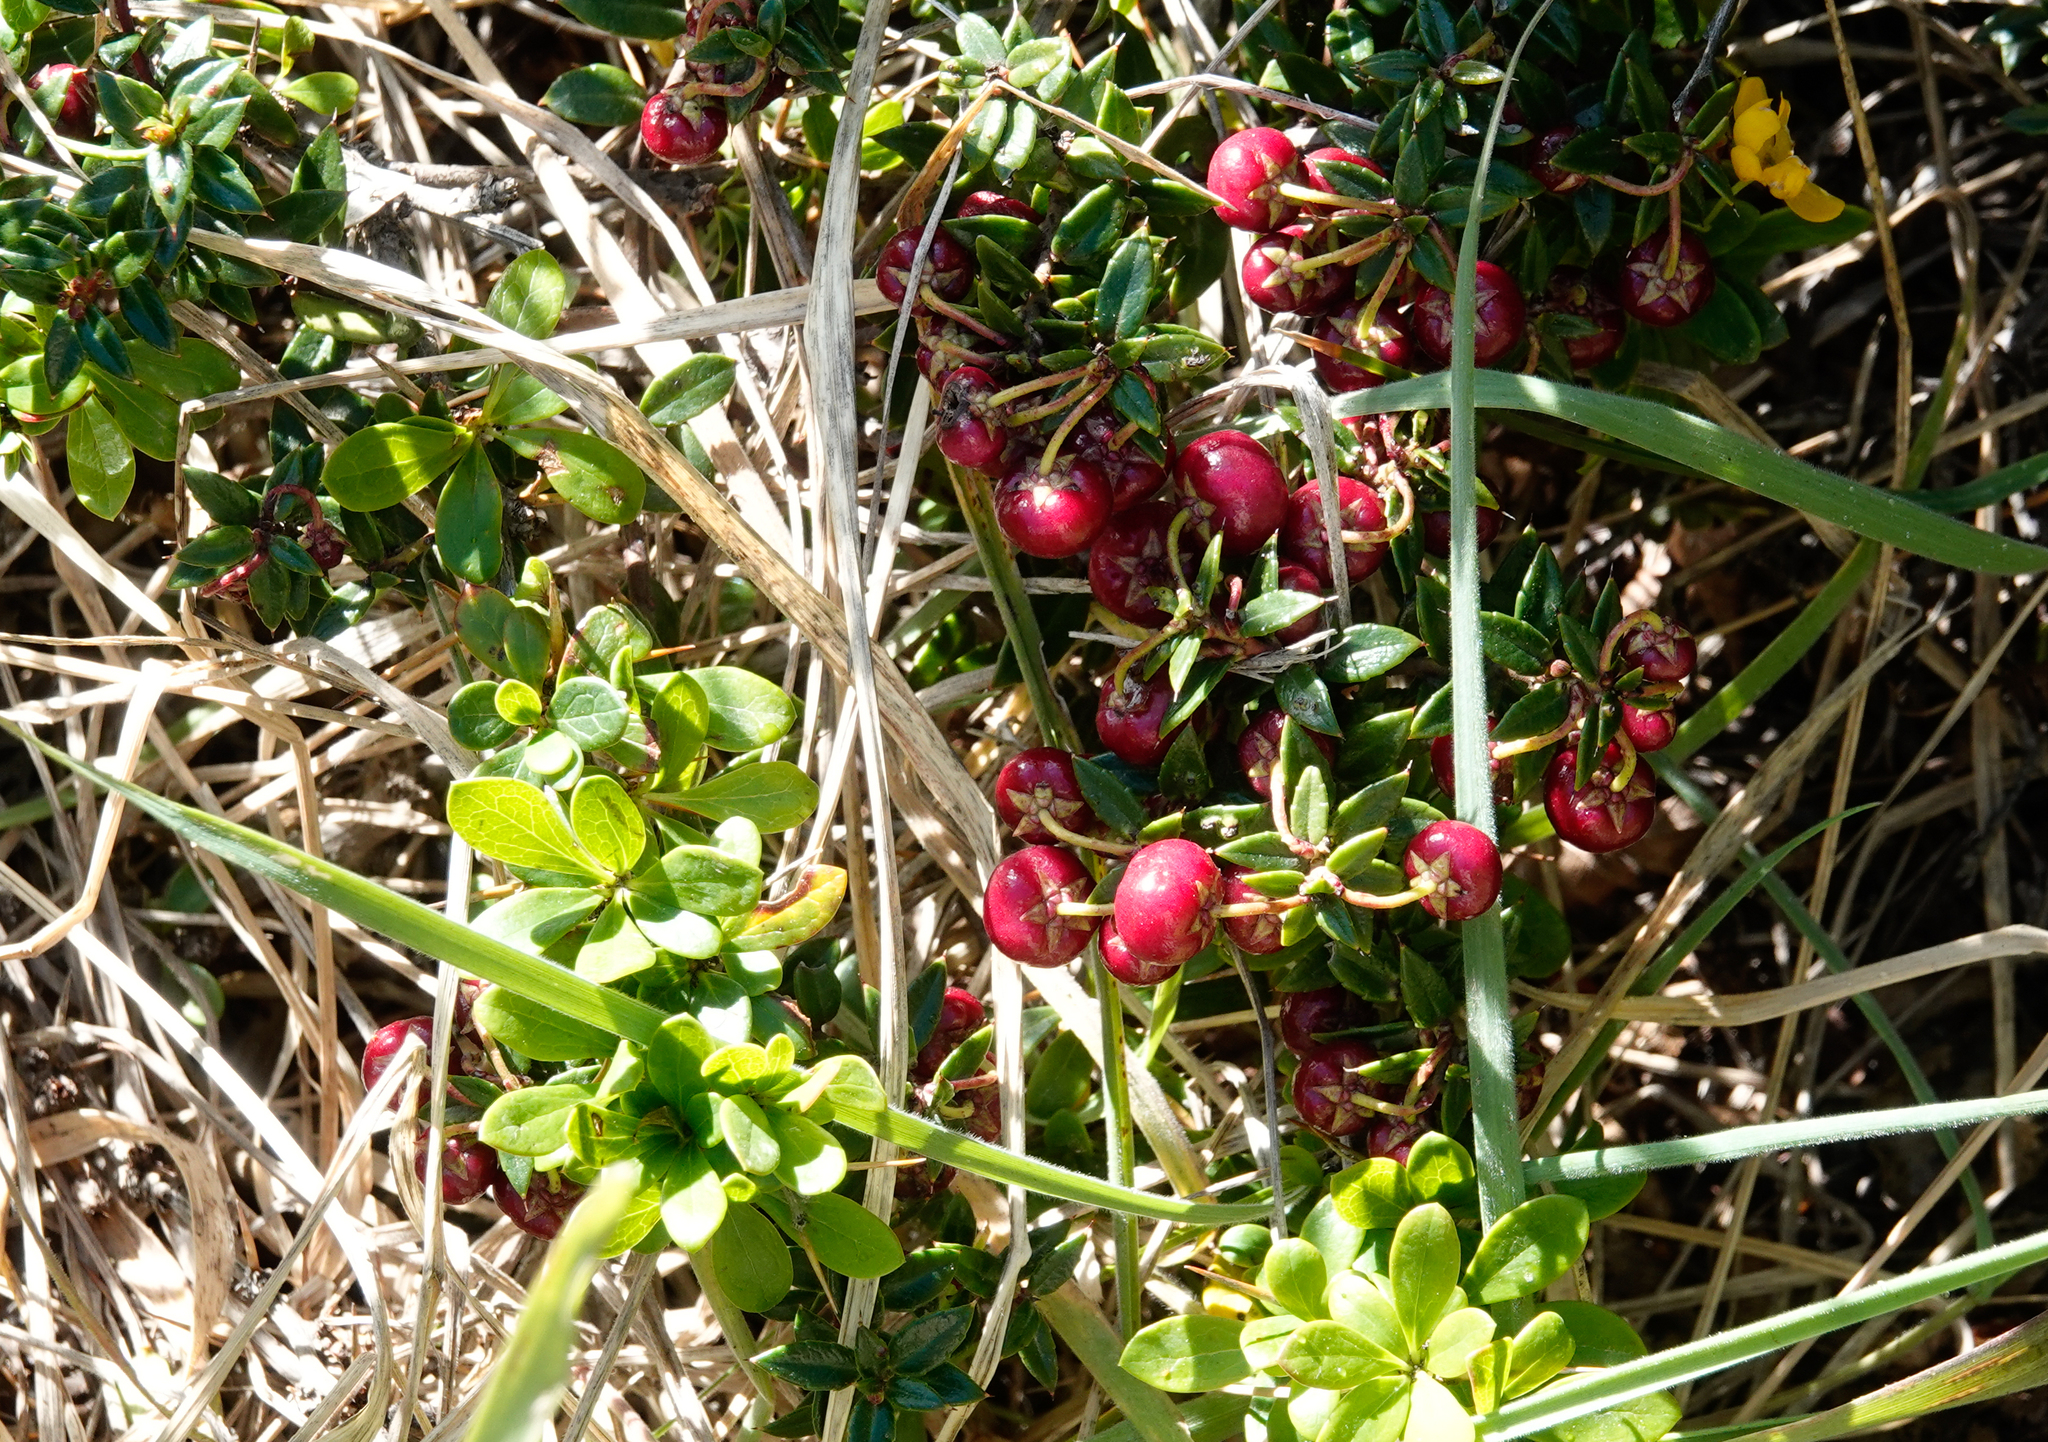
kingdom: Plantae
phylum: Tracheophyta
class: Magnoliopsida
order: Ericales
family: Ericaceae
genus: Gaultheria
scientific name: Gaultheria mucronata
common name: Prickly heath
